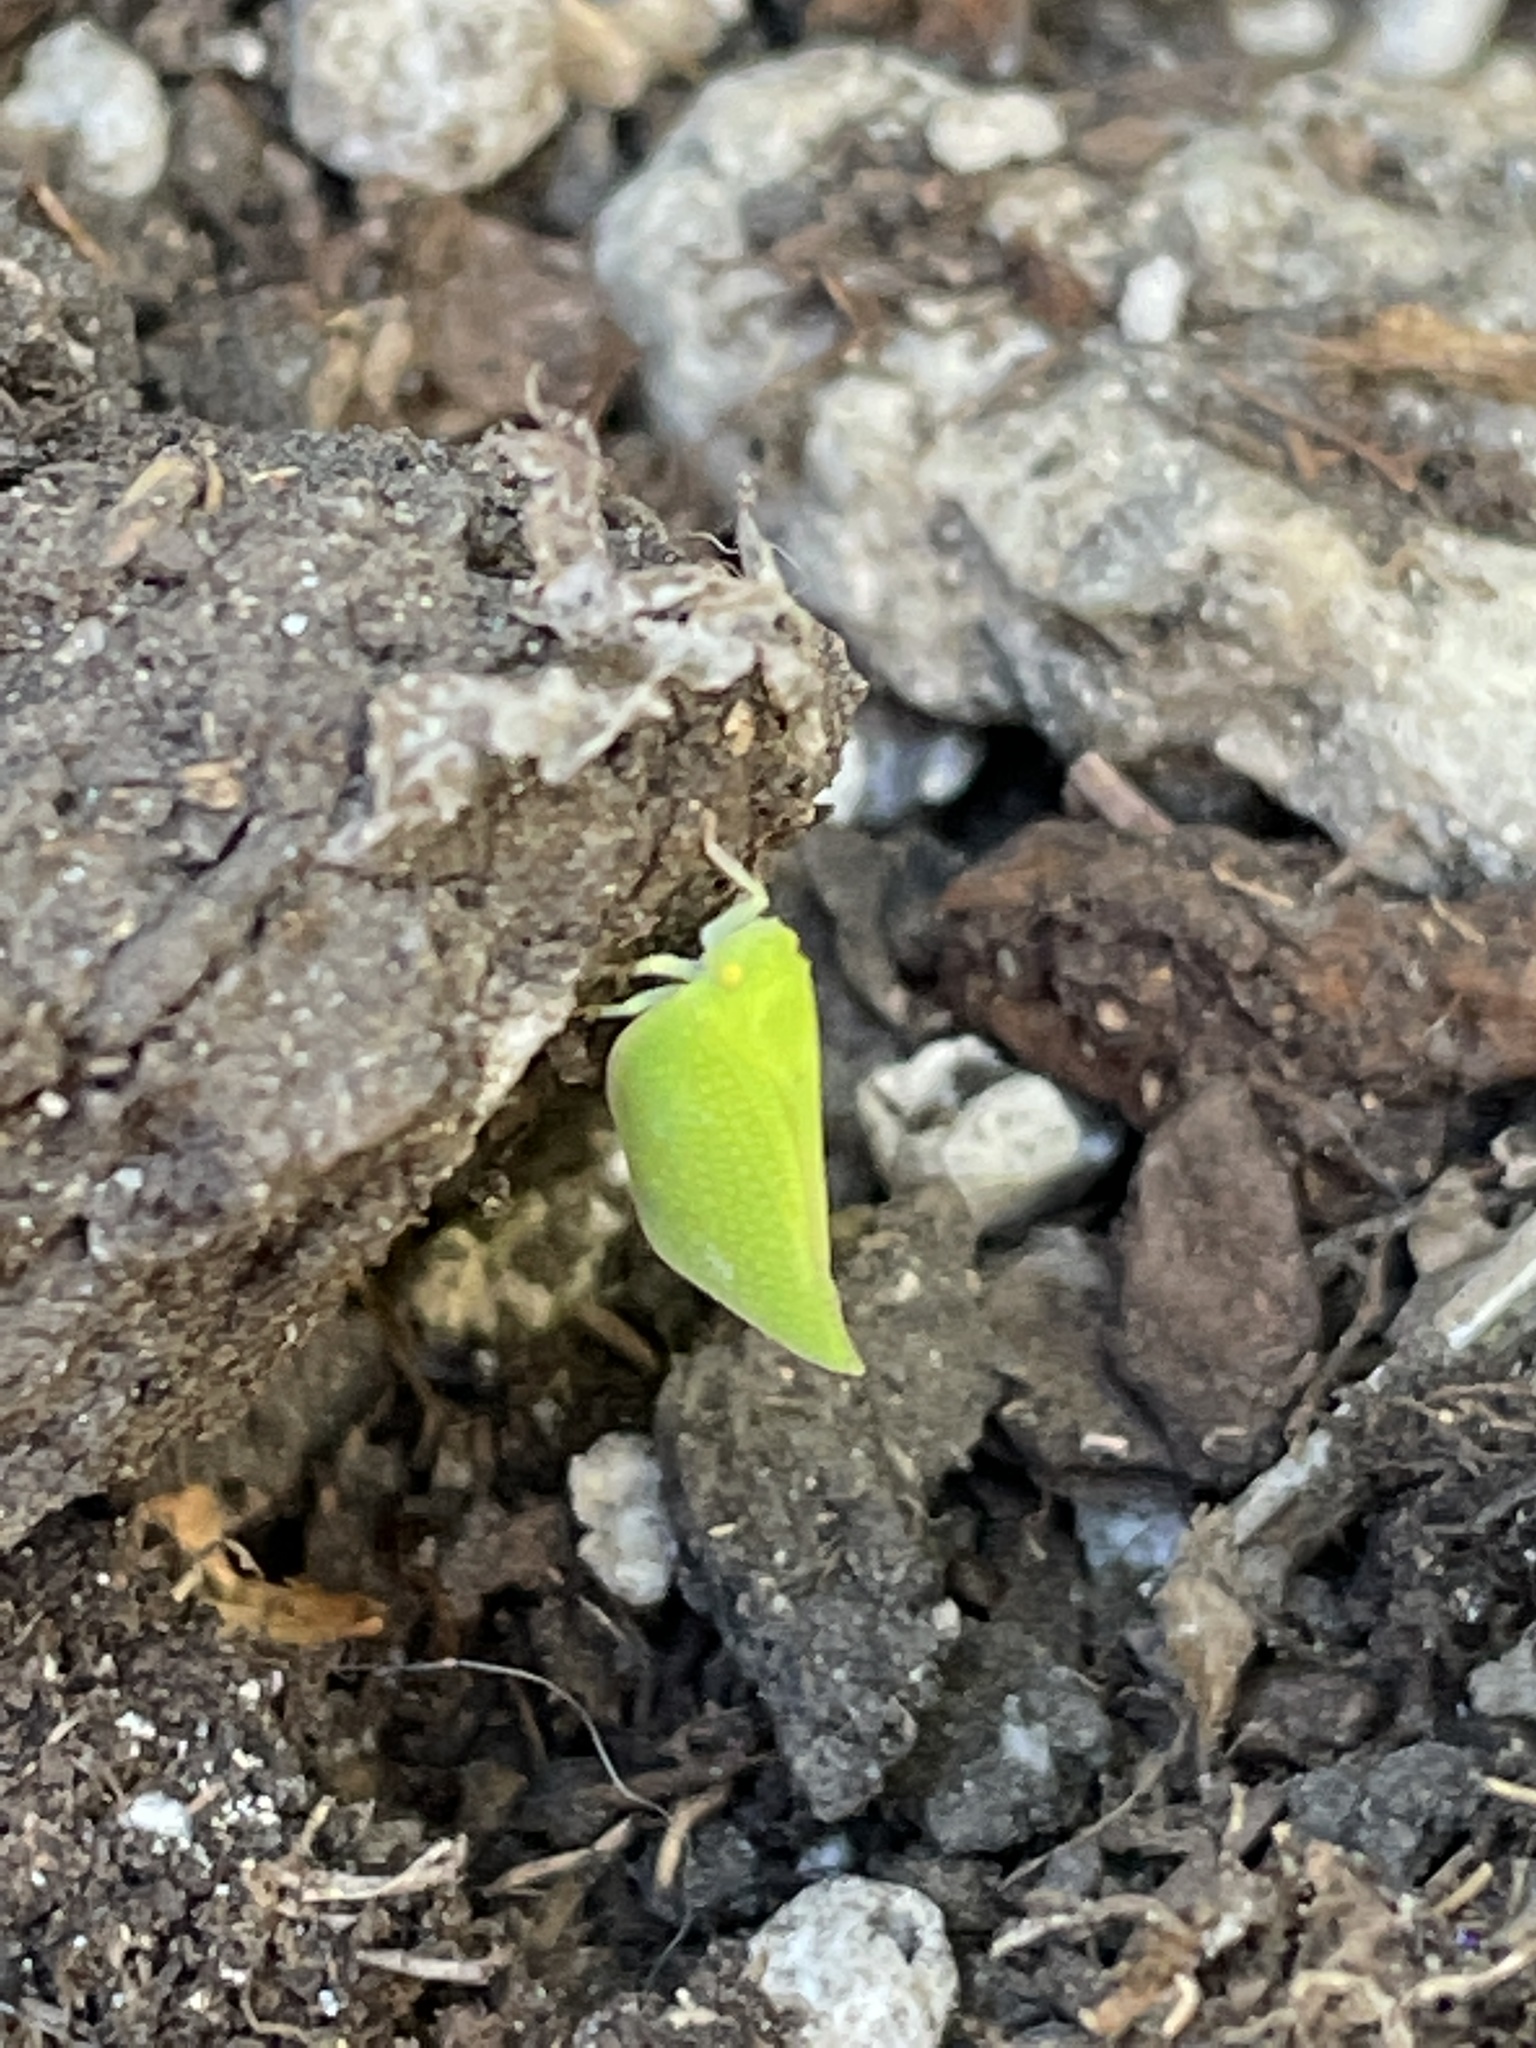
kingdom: Animalia
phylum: Arthropoda
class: Insecta
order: Hemiptera
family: Flatidae
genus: Siphanta
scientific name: Siphanta acuta
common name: Torpedo bug
